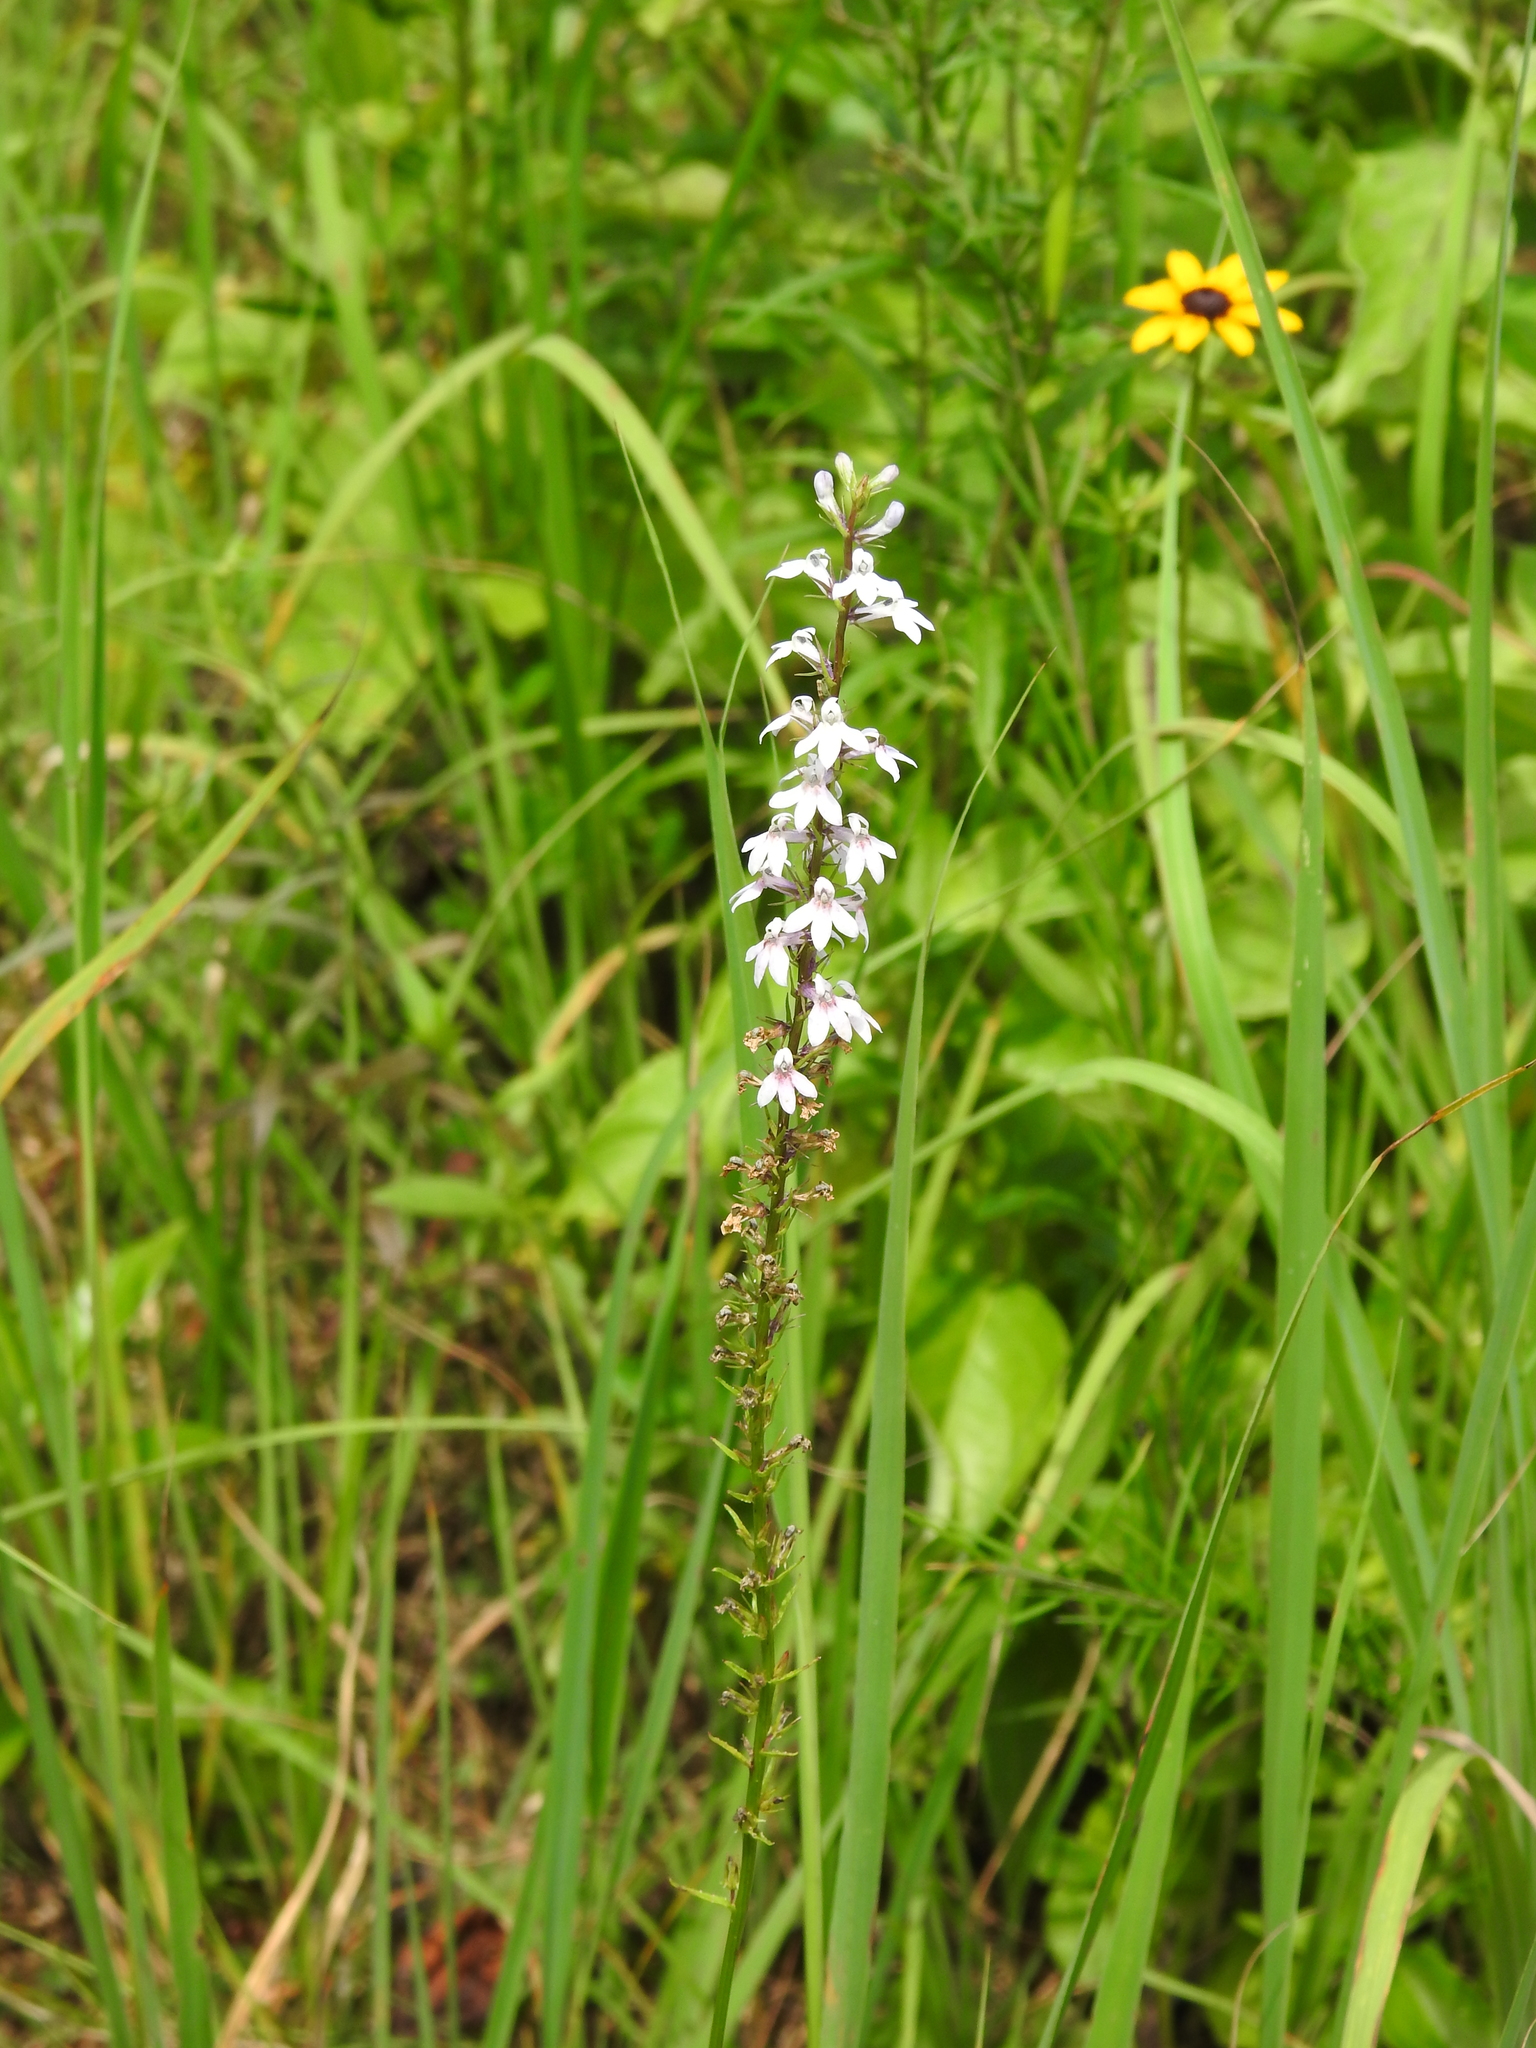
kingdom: Plantae
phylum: Tracheophyta
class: Magnoliopsida
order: Asterales
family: Campanulaceae
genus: Lobelia
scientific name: Lobelia spicata
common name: Pale-spike lobelia
